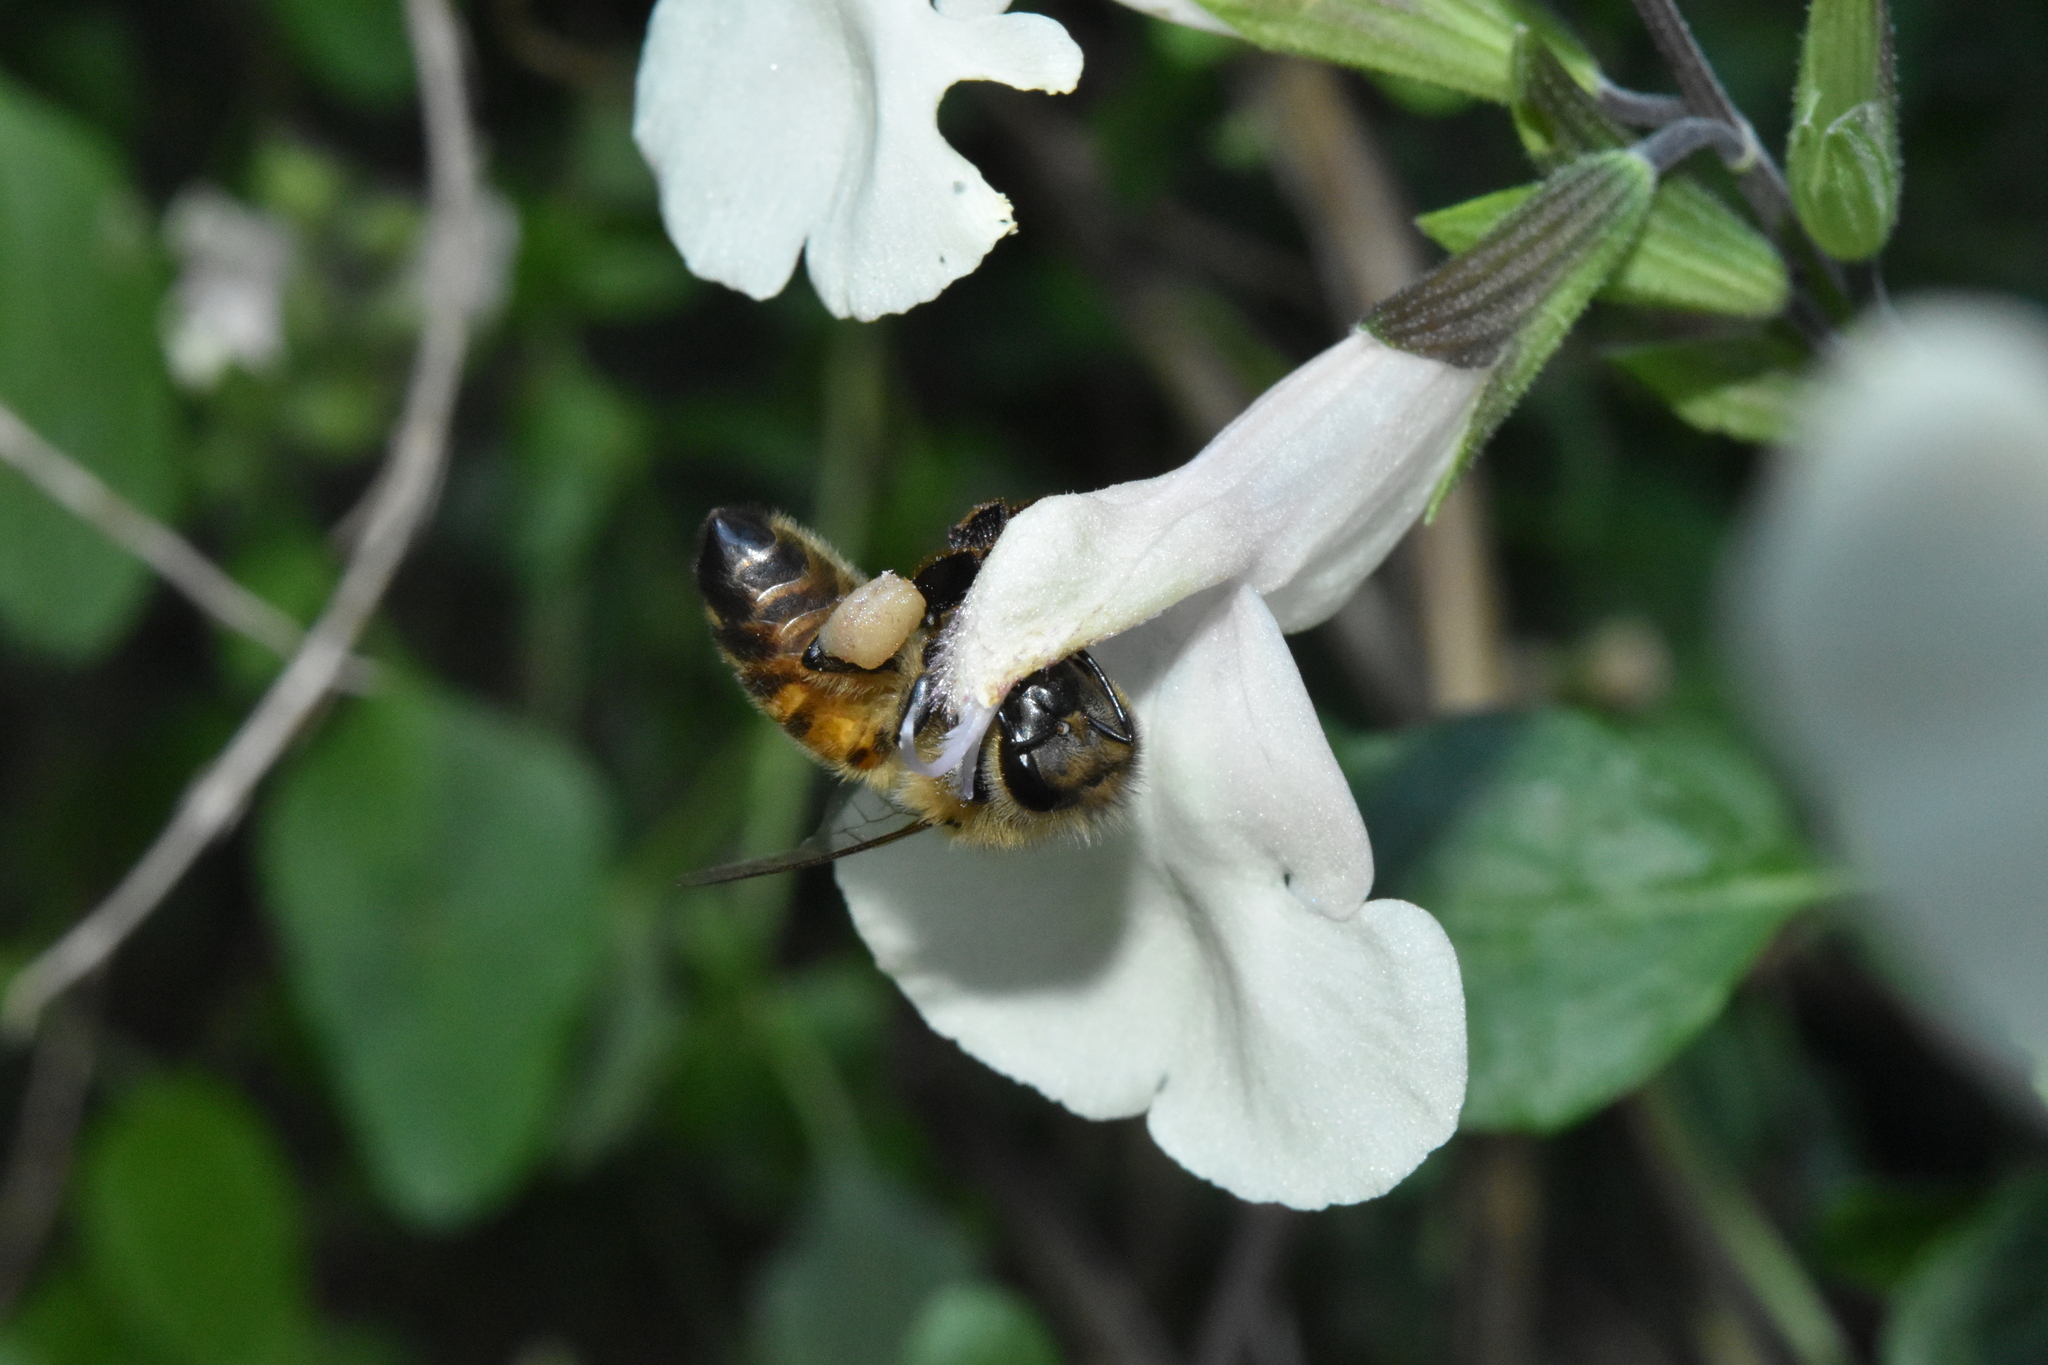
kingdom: Animalia
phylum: Arthropoda
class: Insecta
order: Hymenoptera
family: Apidae
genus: Apis
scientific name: Apis mellifera
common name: Honey bee
